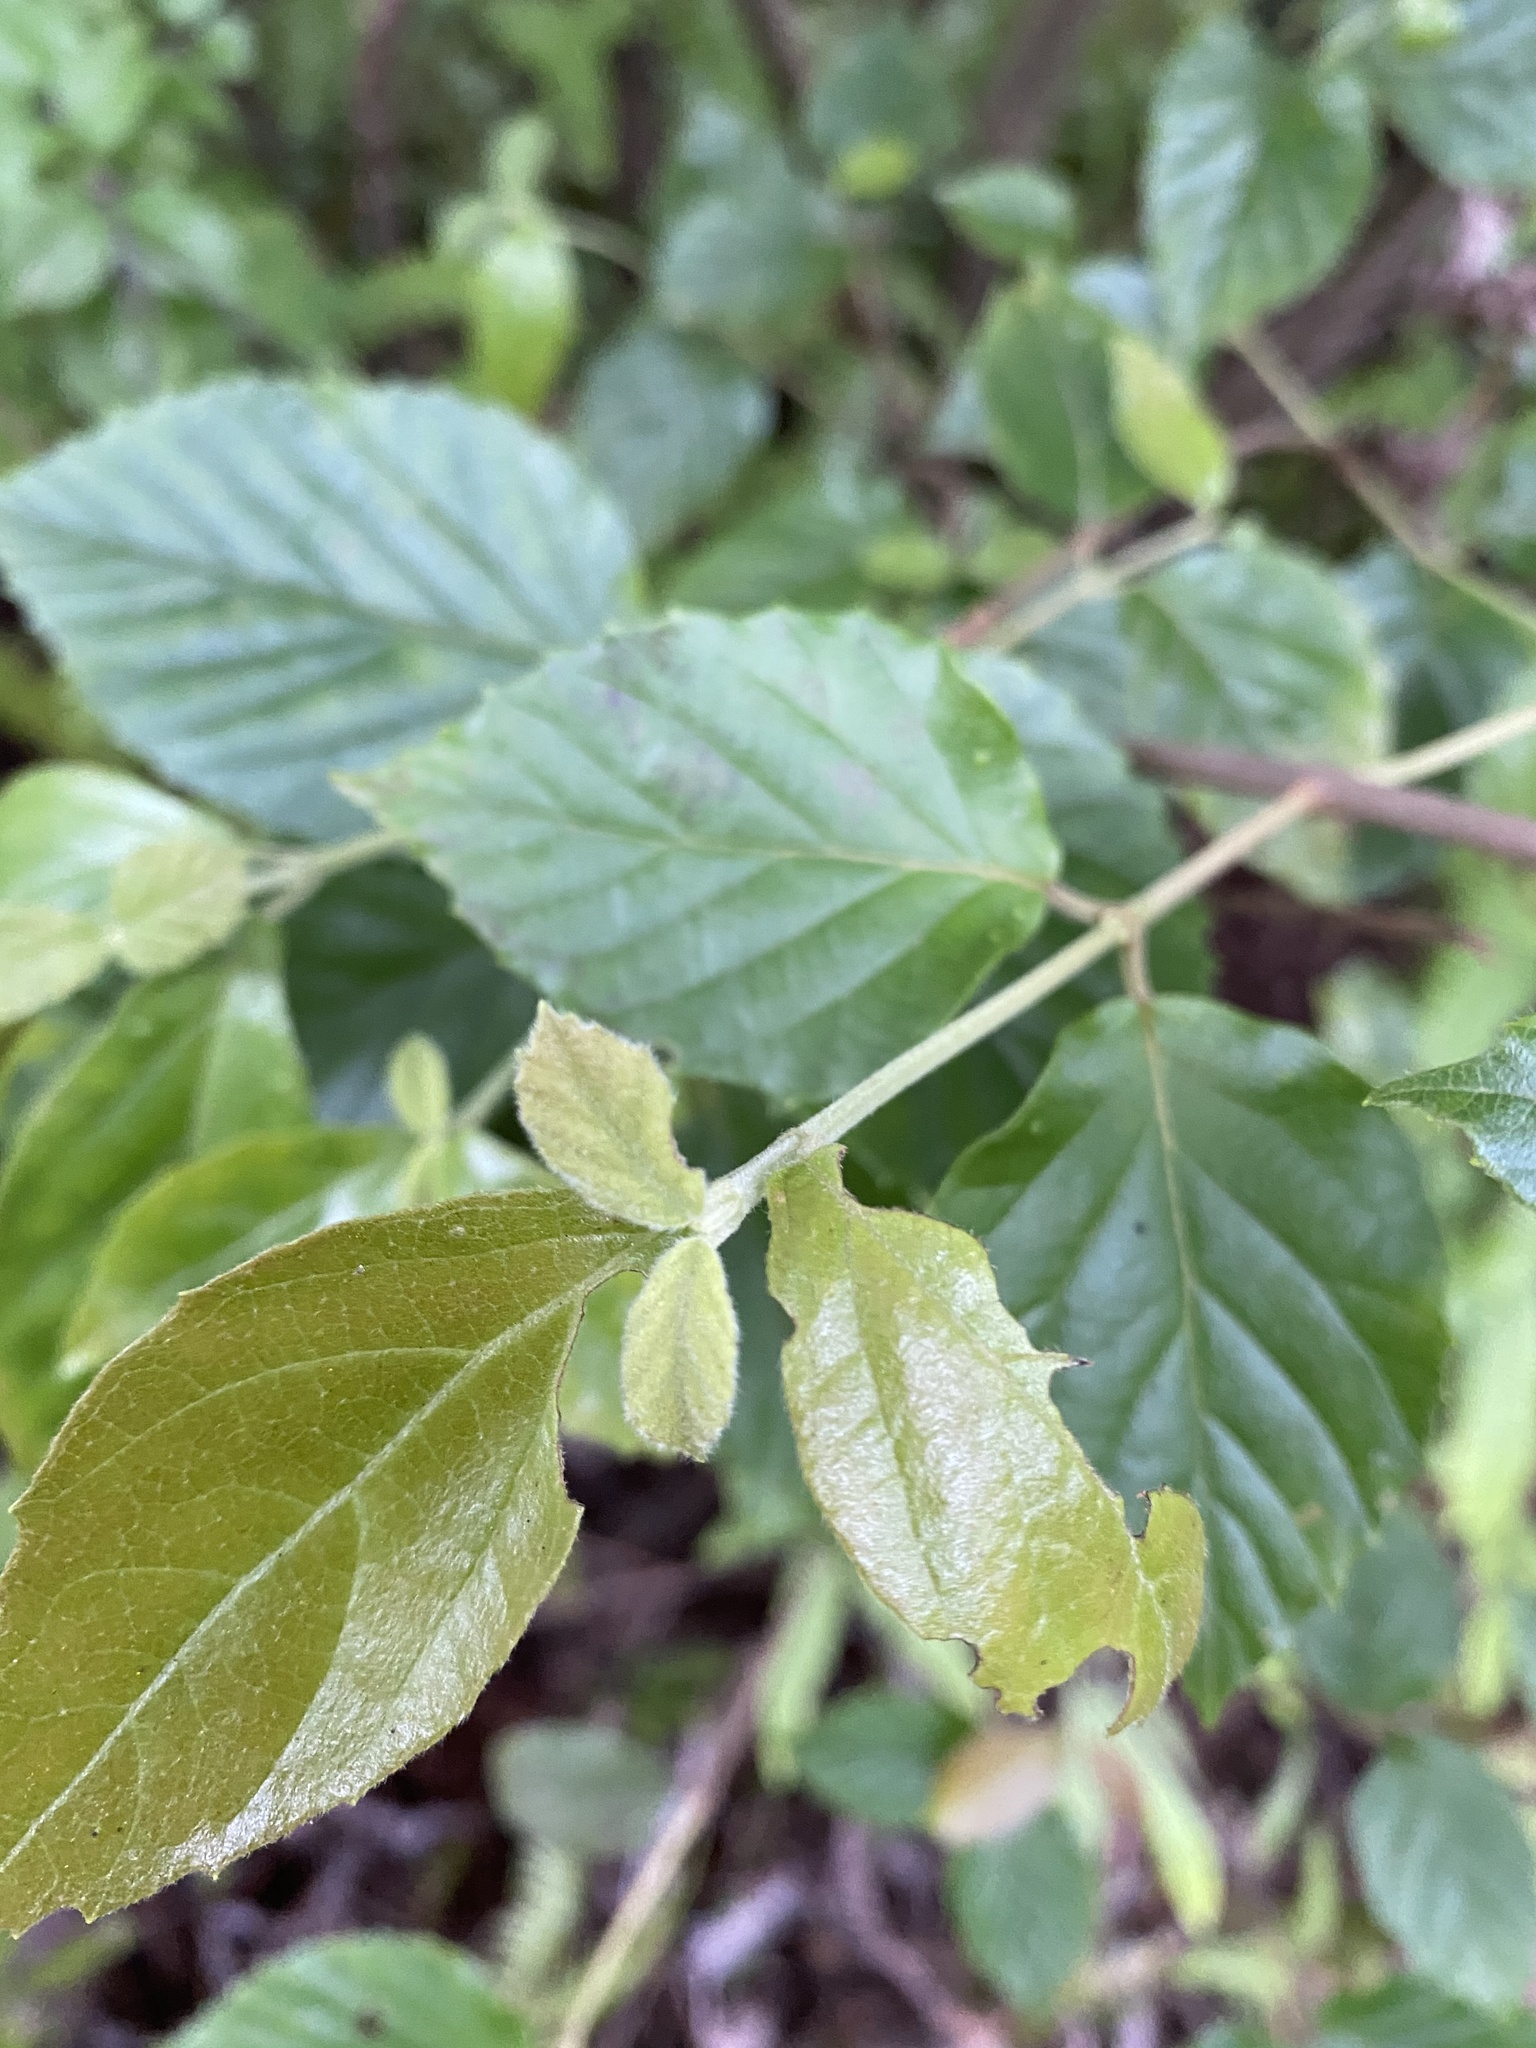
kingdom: Plantae
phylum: Tracheophyta
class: Magnoliopsida
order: Dipsacales
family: Viburnaceae
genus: Viburnum
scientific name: Viburnum luzonicum
